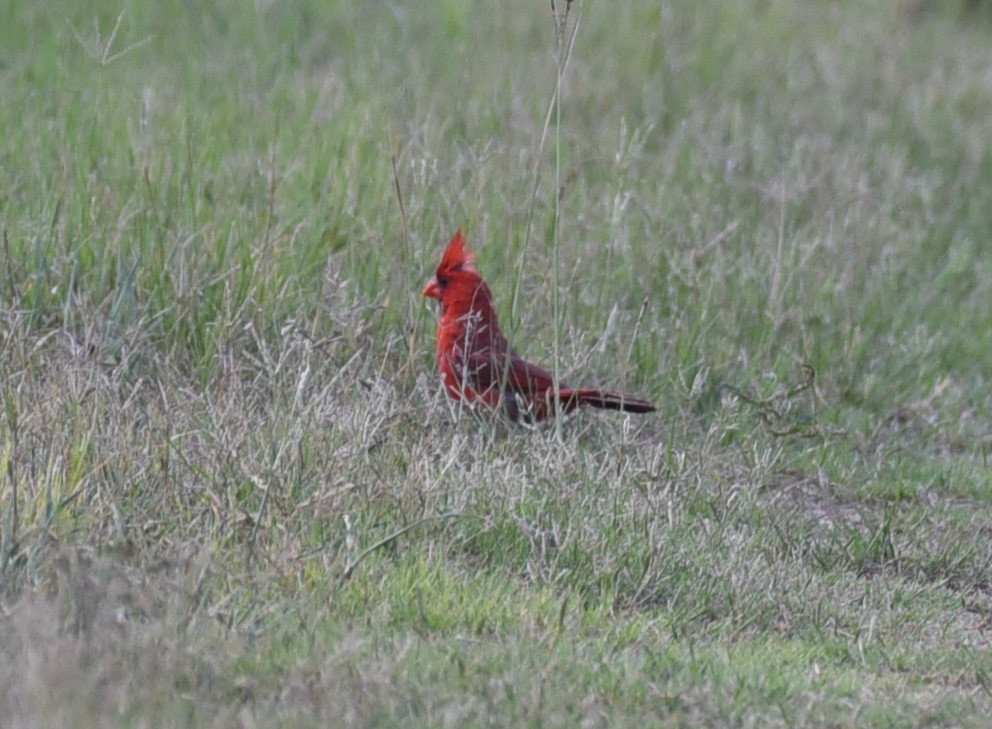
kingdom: Animalia
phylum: Chordata
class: Aves
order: Passeriformes
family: Cardinalidae
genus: Cardinalis
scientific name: Cardinalis cardinalis
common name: Northern cardinal
